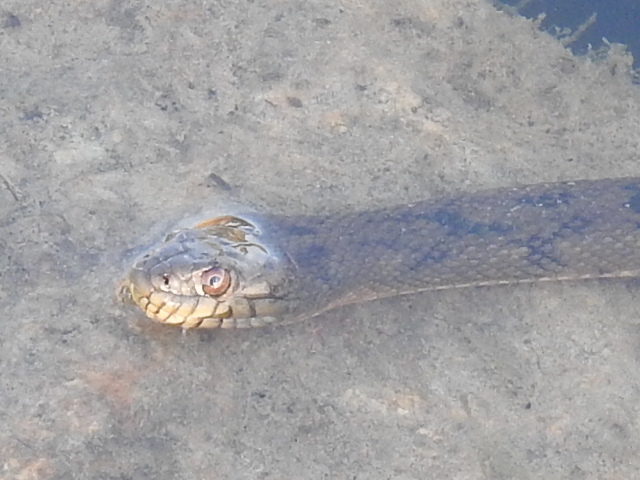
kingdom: Animalia
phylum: Chordata
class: Squamata
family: Colubridae
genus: Nerodia
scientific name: Nerodia rhombifer
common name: Diamondback water snake
